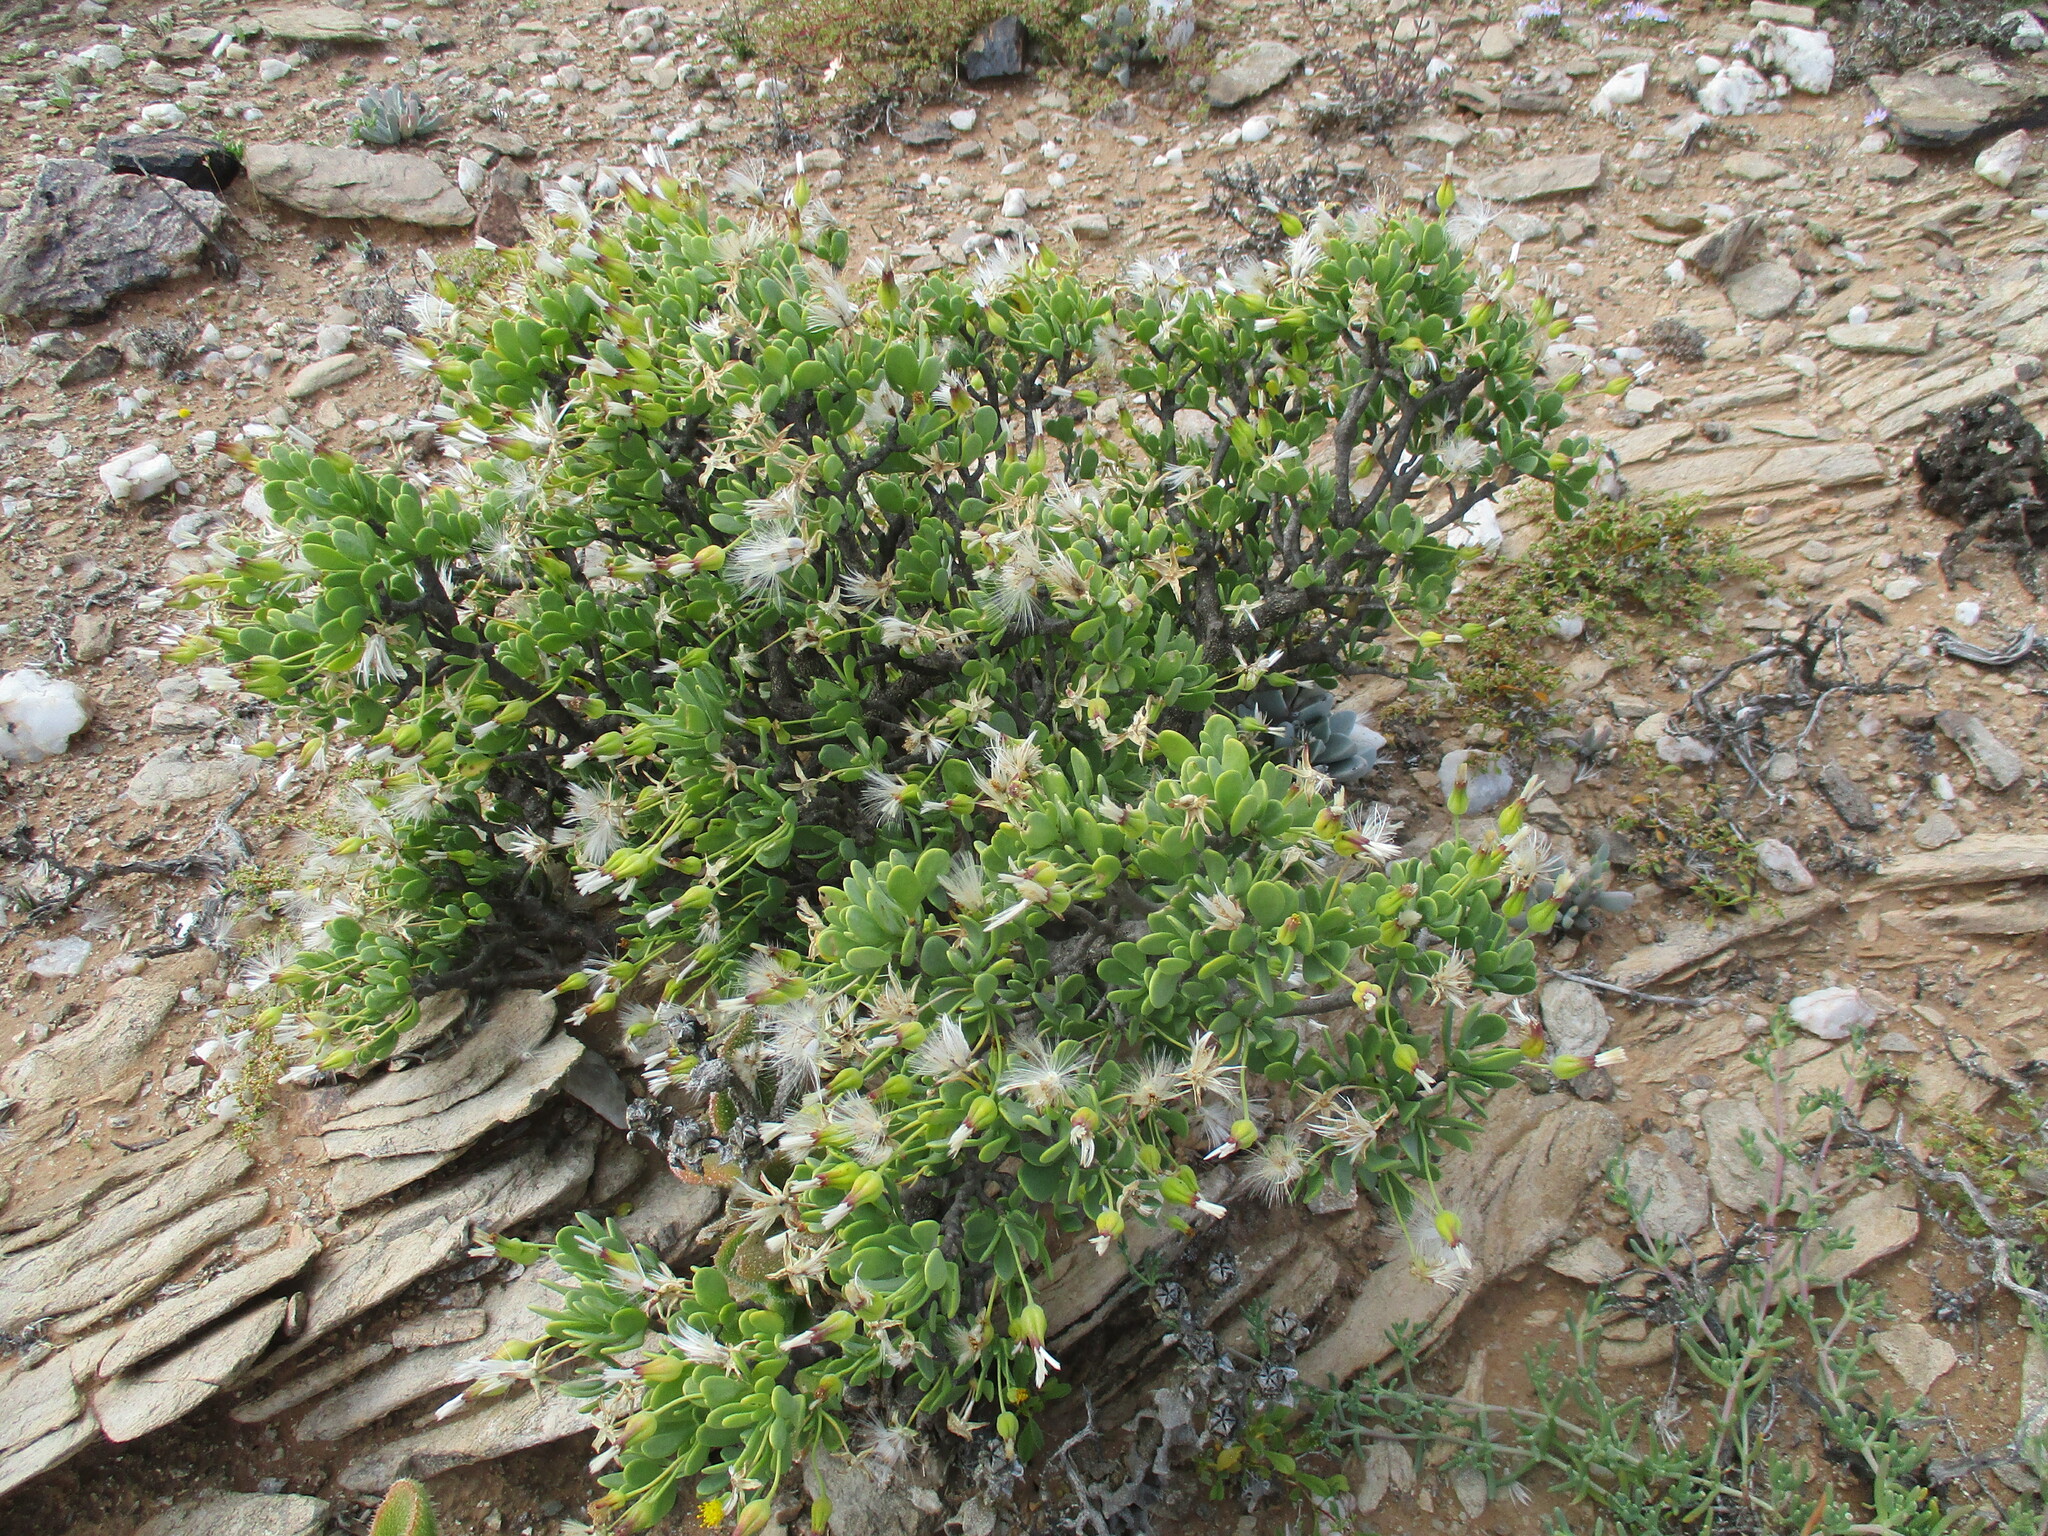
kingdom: Plantae
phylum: Tracheophyta
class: Magnoliopsida
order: Asterales
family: Asteraceae
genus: Othonna
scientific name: Othonna lasiocarpa
